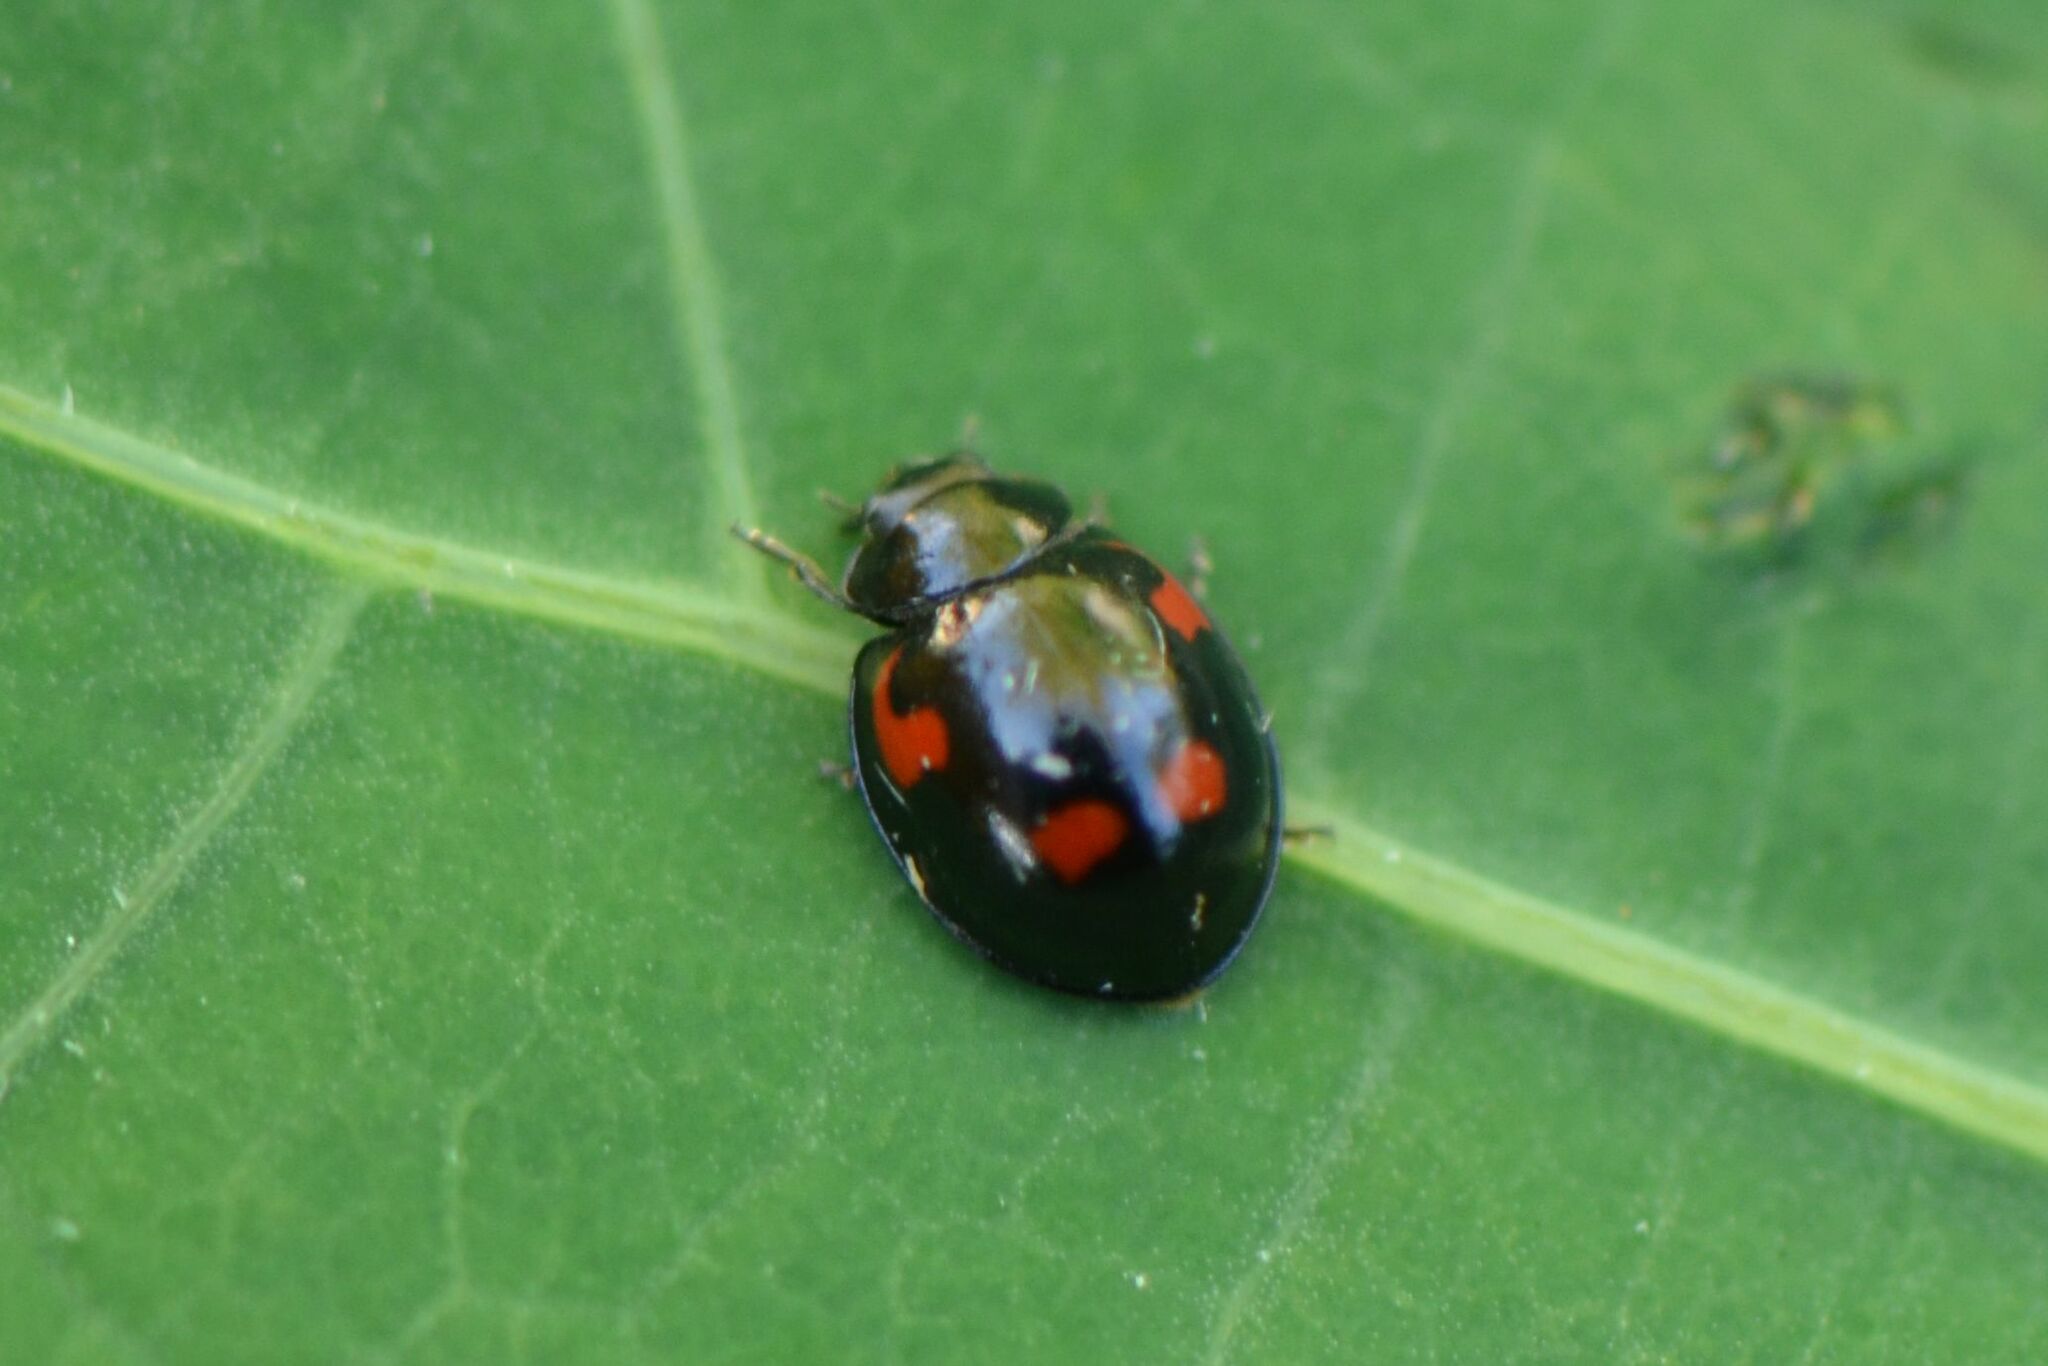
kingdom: Animalia
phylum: Arthropoda
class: Insecta
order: Coleoptera
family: Coccinellidae
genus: Brumus
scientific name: Brumus quadripustulatus
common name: Ladybird beetle
